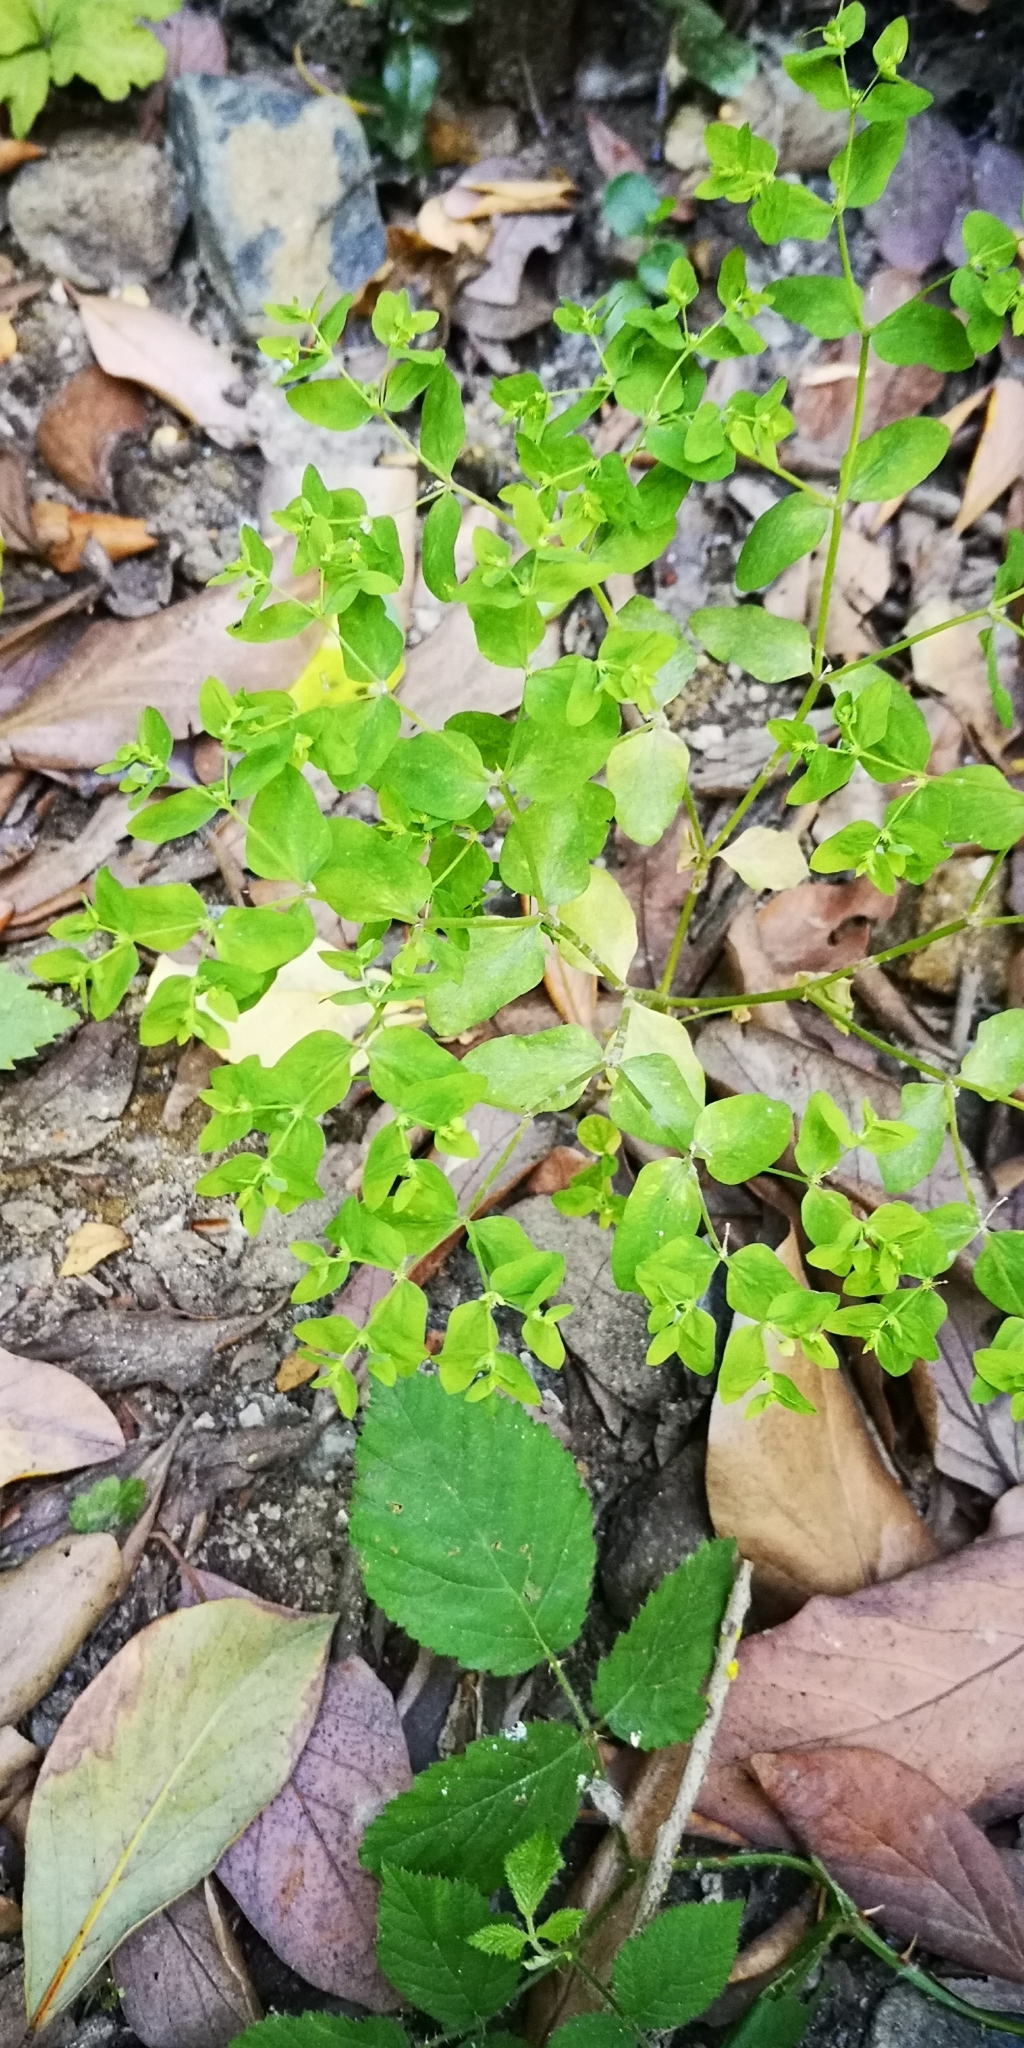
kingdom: Plantae
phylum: Tracheophyta
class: Magnoliopsida
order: Malpighiales
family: Euphorbiaceae
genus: Euphorbia
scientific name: Euphorbia peplus
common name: Petty spurge
